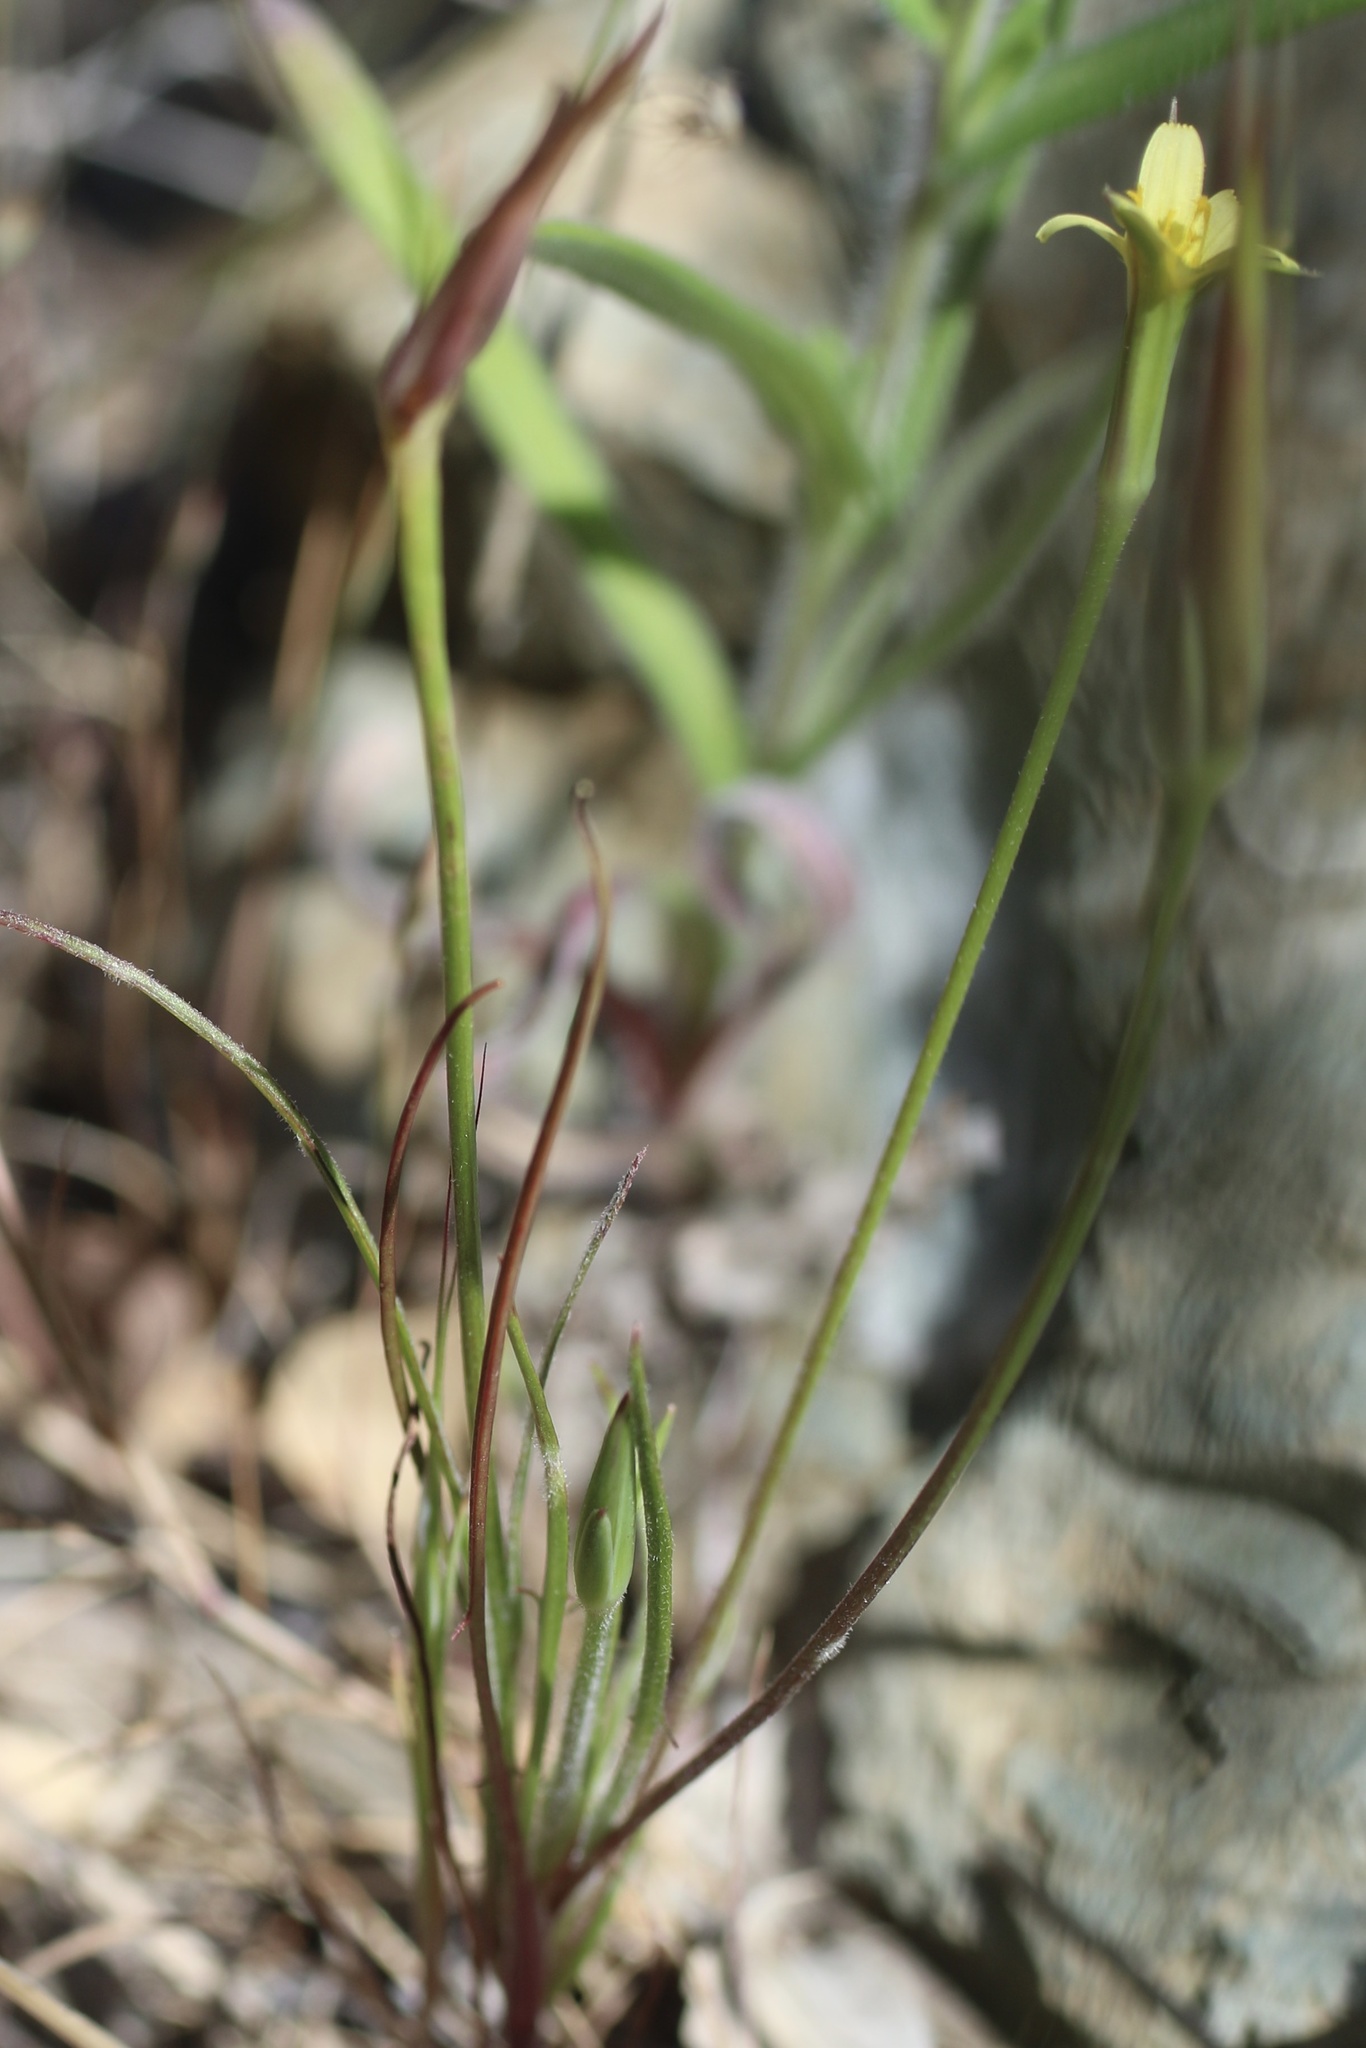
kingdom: Plantae
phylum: Tracheophyta
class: Magnoliopsida
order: Asterales
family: Asteraceae
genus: Microseris
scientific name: Microseris lindleyi
